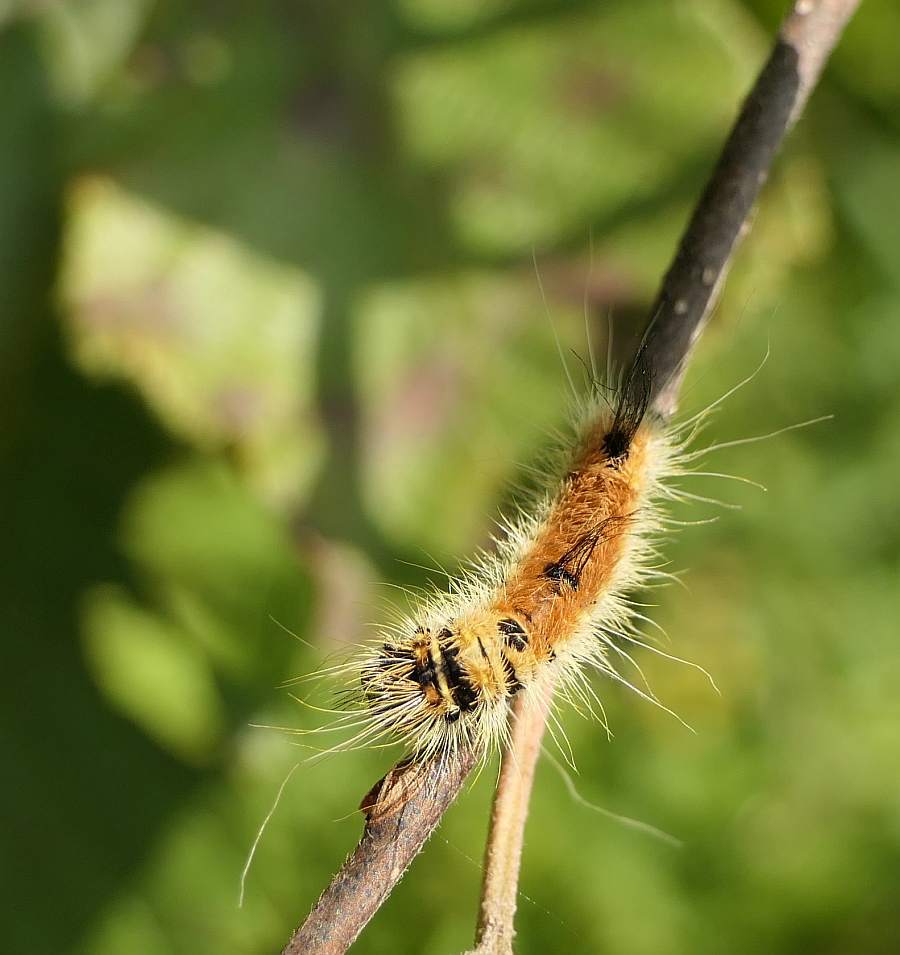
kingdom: Animalia
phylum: Arthropoda
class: Insecta
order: Lepidoptera
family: Noctuidae
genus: Acronicta
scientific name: Acronicta insita
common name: Large gray dagger
